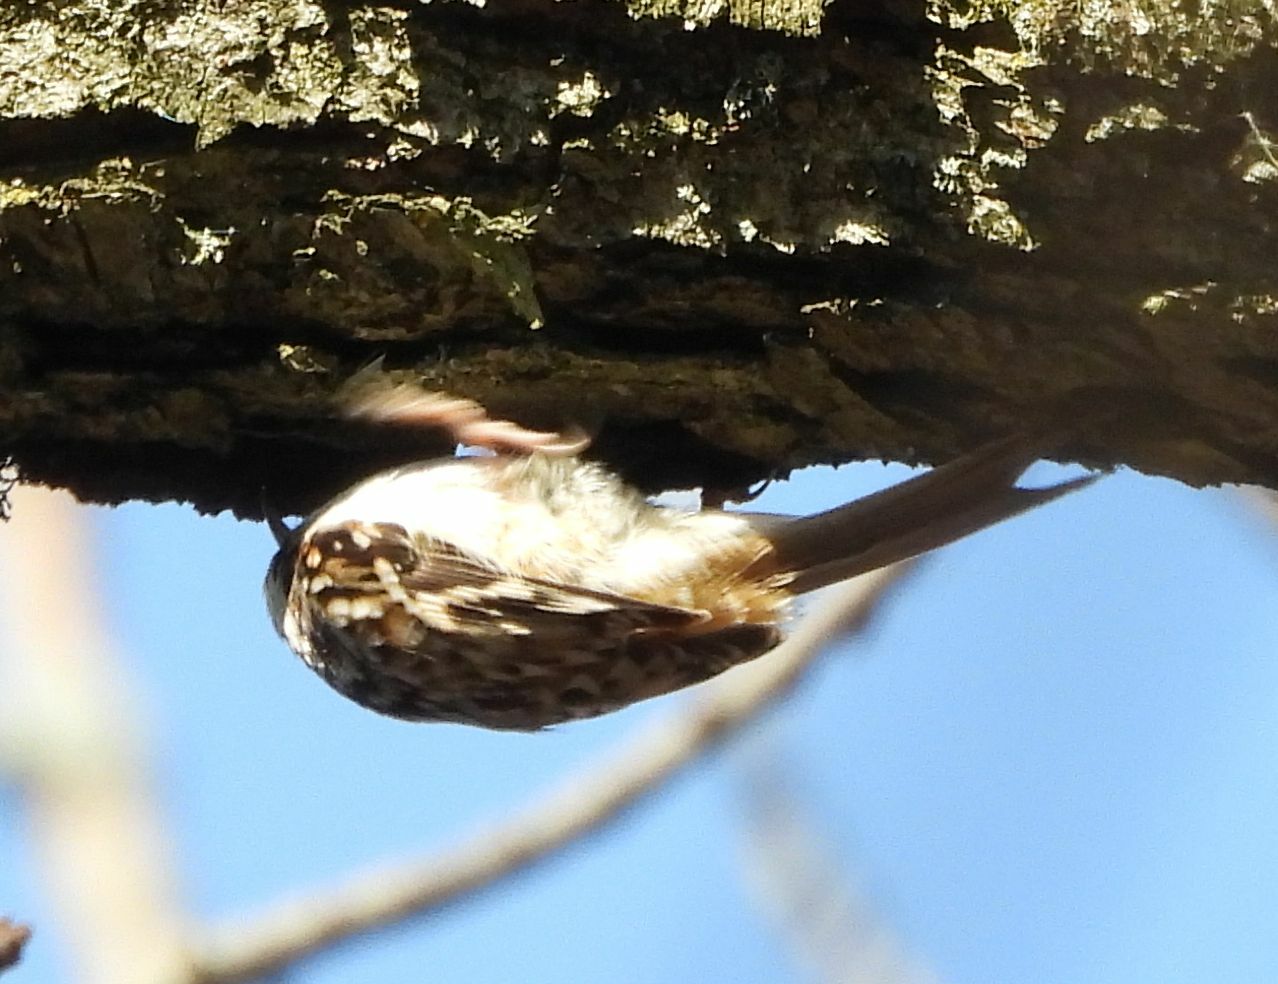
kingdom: Animalia
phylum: Chordata
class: Aves
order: Passeriformes
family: Certhiidae
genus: Certhia
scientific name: Certhia americana
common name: Brown creeper
